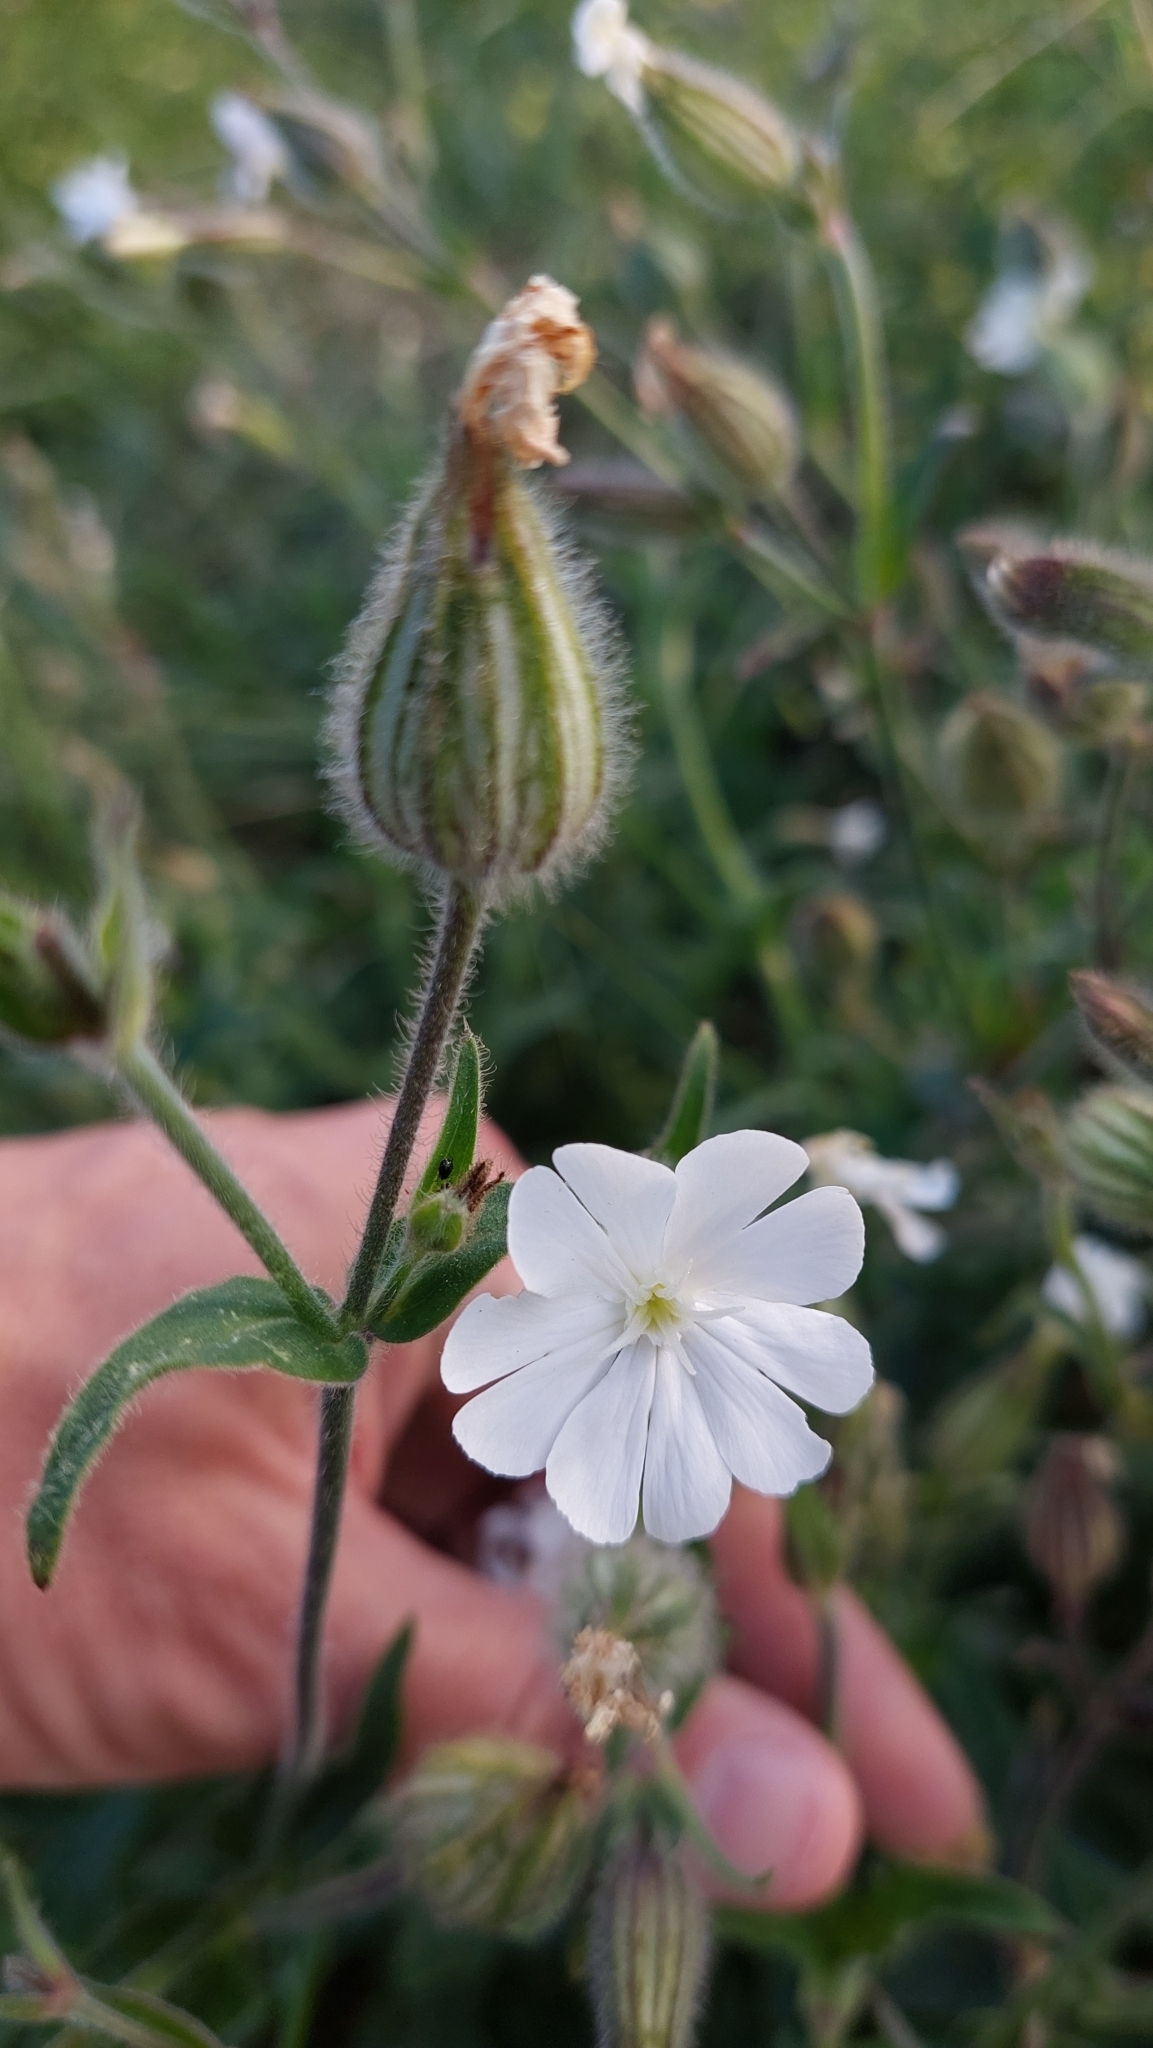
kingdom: Plantae
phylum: Tracheophyta
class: Magnoliopsida
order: Caryophyllales
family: Caryophyllaceae
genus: Silene
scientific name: Silene latifolia
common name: White campion
